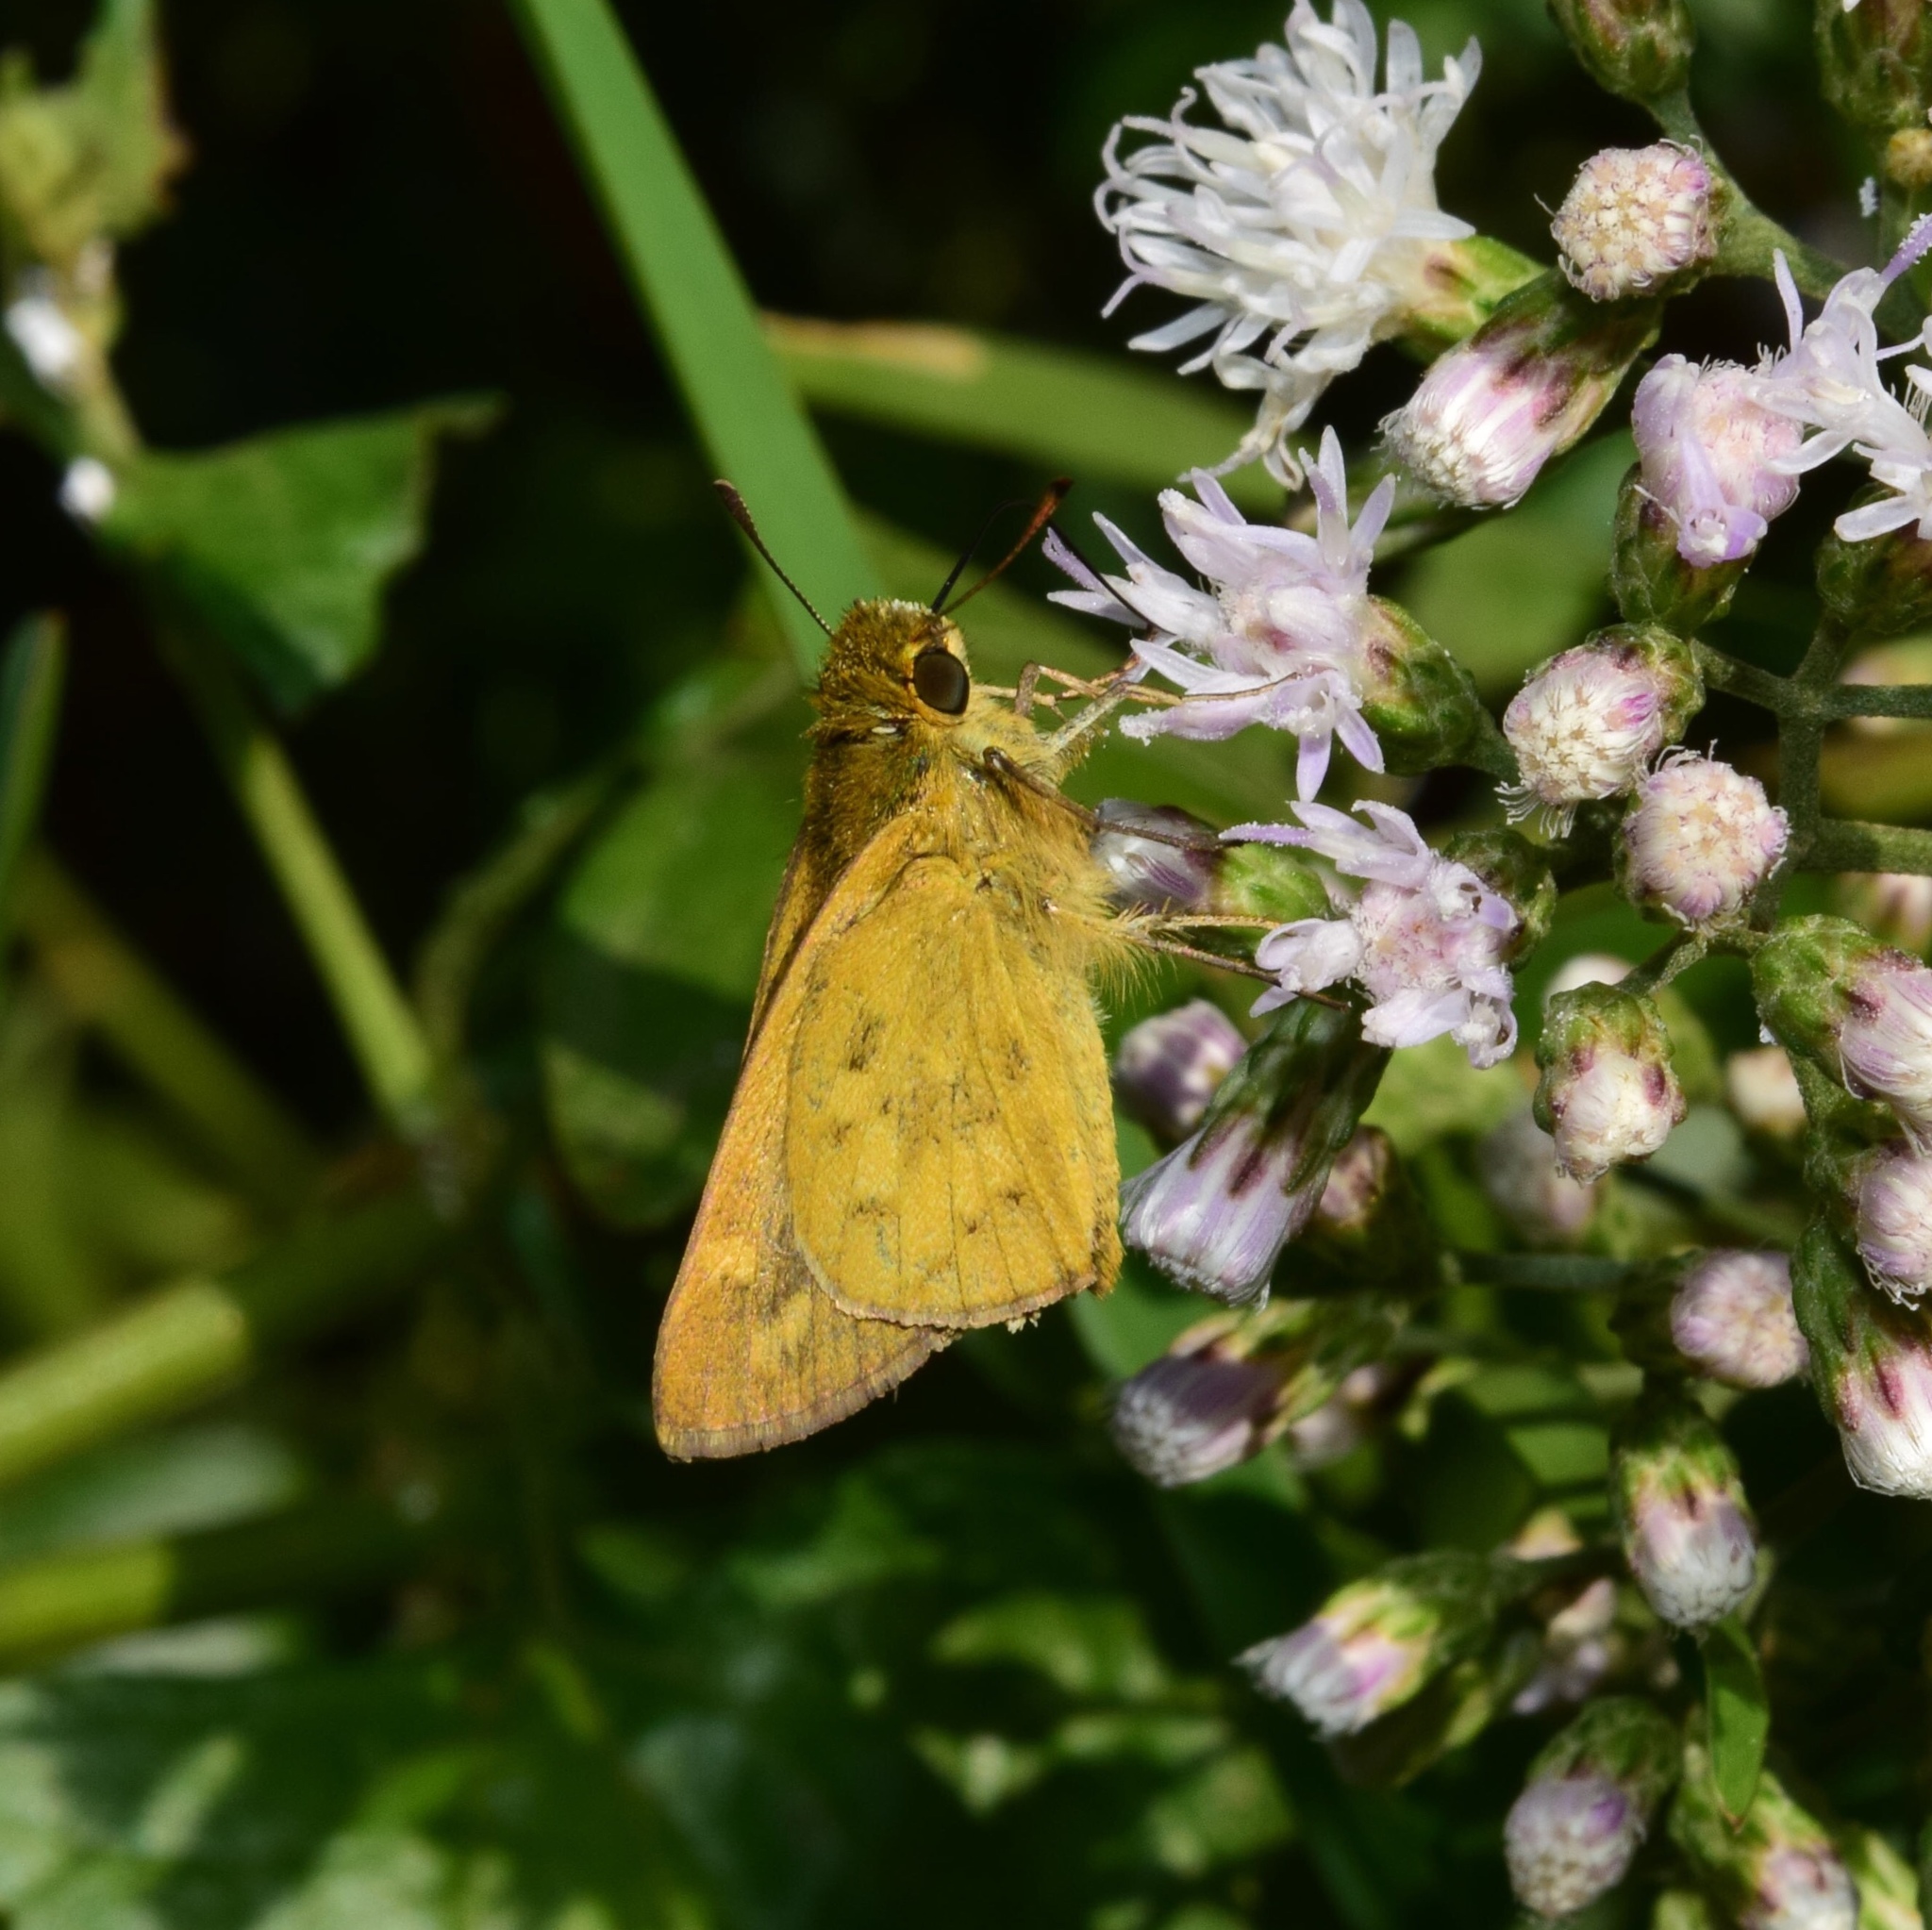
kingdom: Animalia
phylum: Arthropoda
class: Insecta
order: Hymenoptera
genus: Afrogenes
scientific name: Afrogenes
